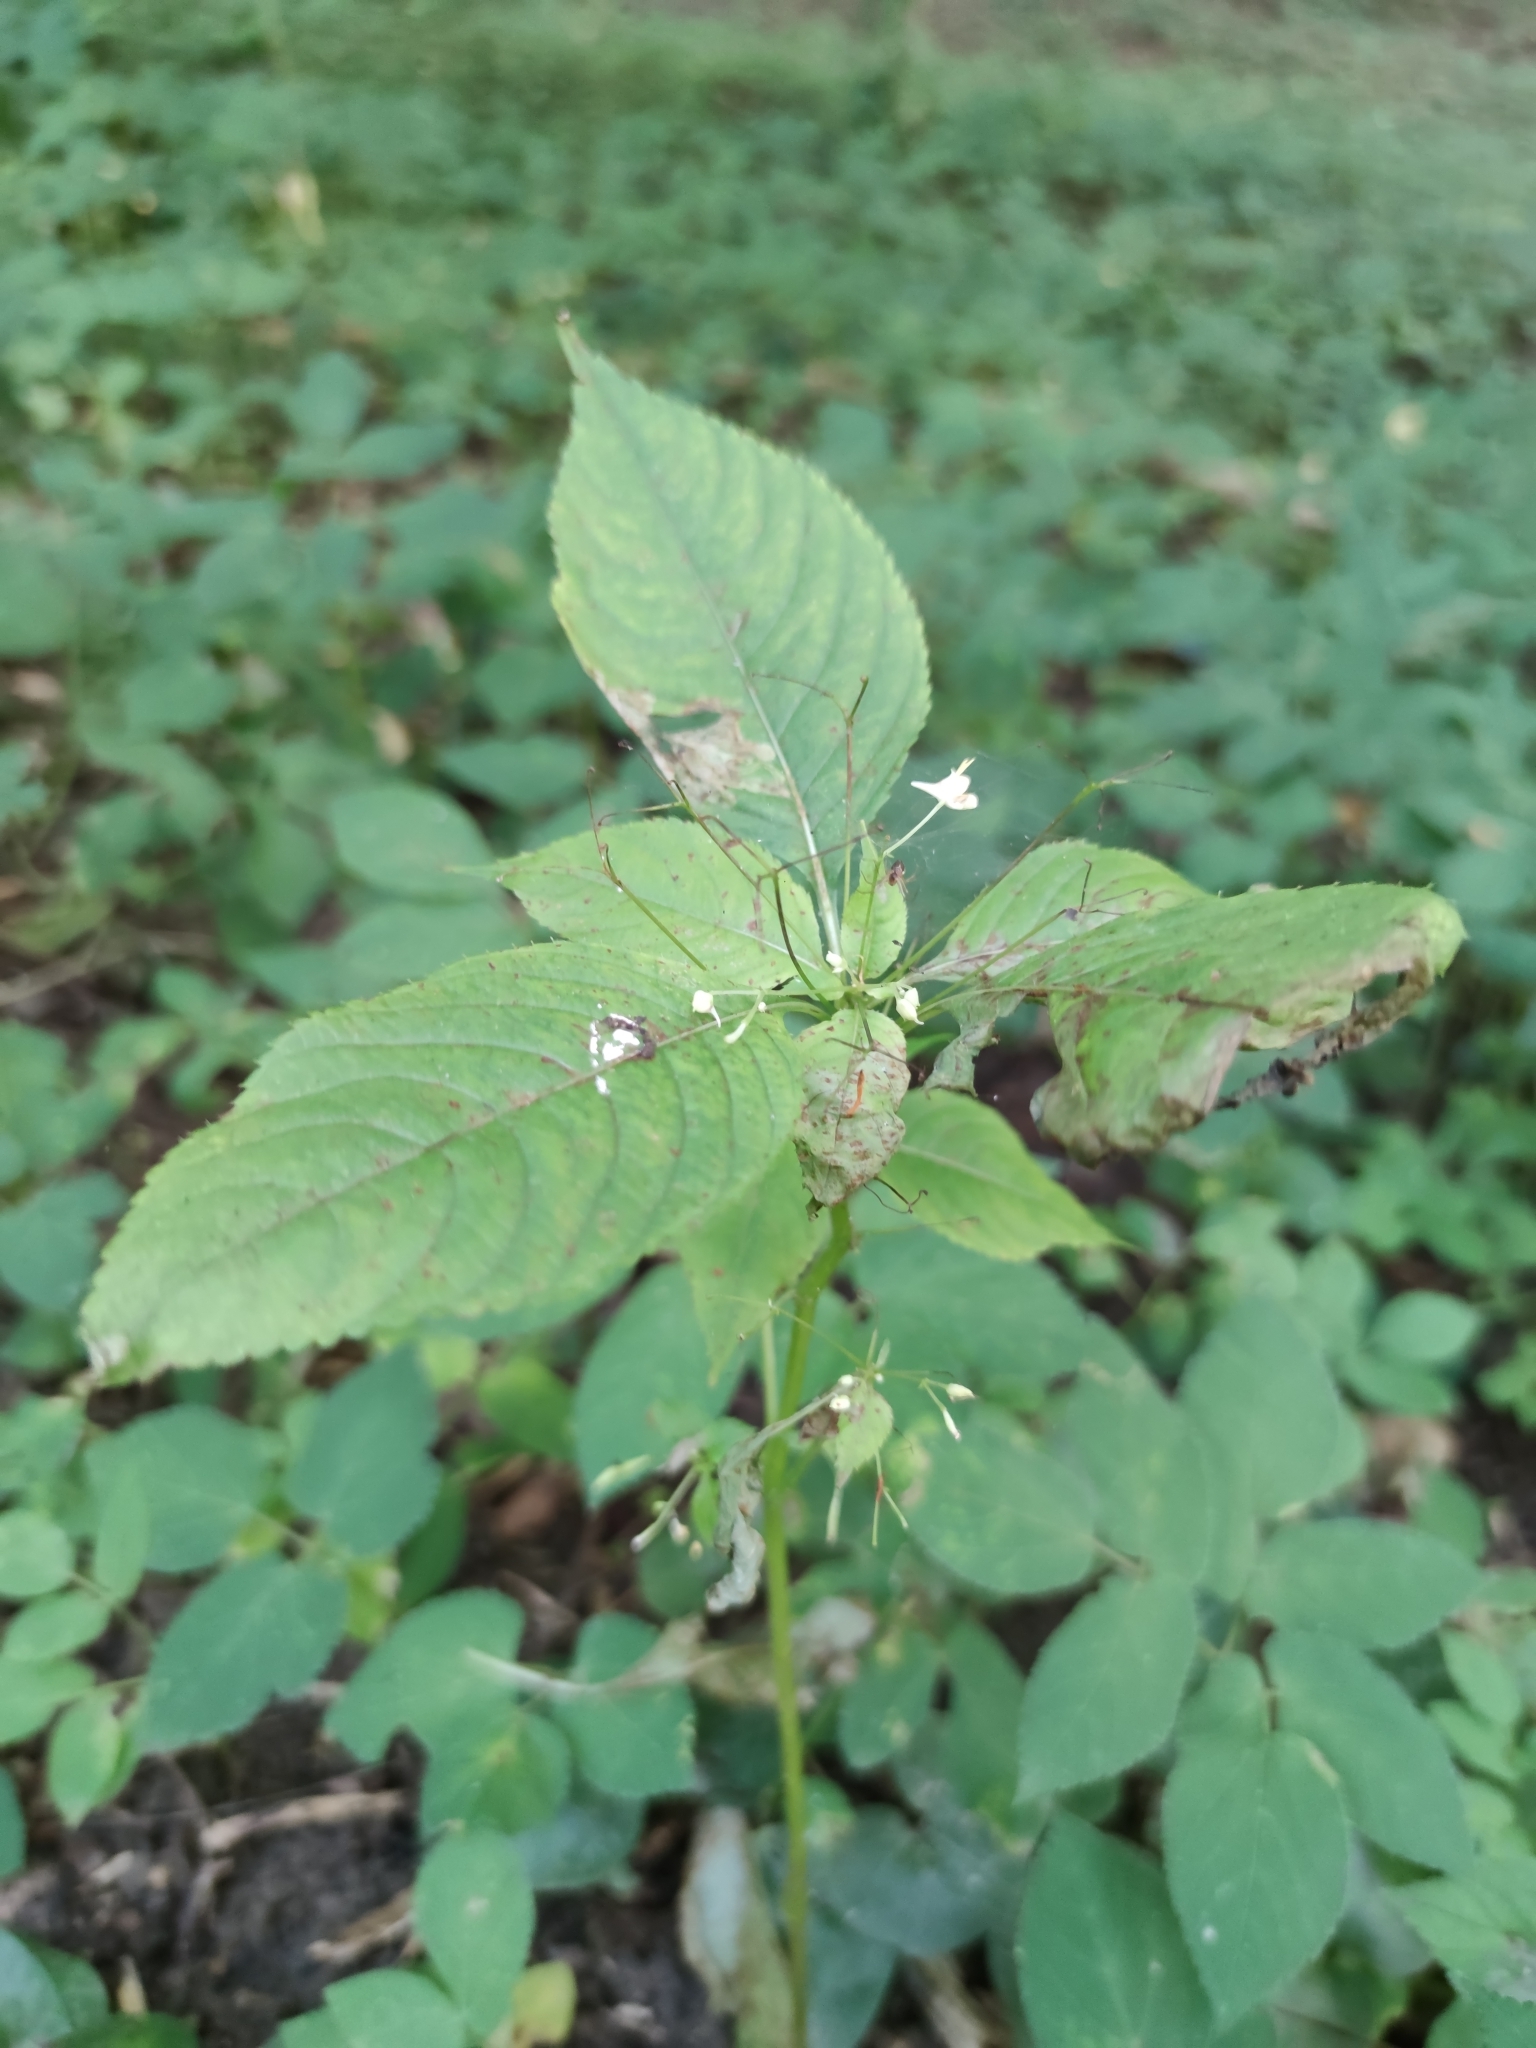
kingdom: Plantae
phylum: Tracheophyta
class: Magnoliopsida
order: Ericales
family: Balsaminaceae
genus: Impatiens
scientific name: Impatiens parviflora
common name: Small balsam
